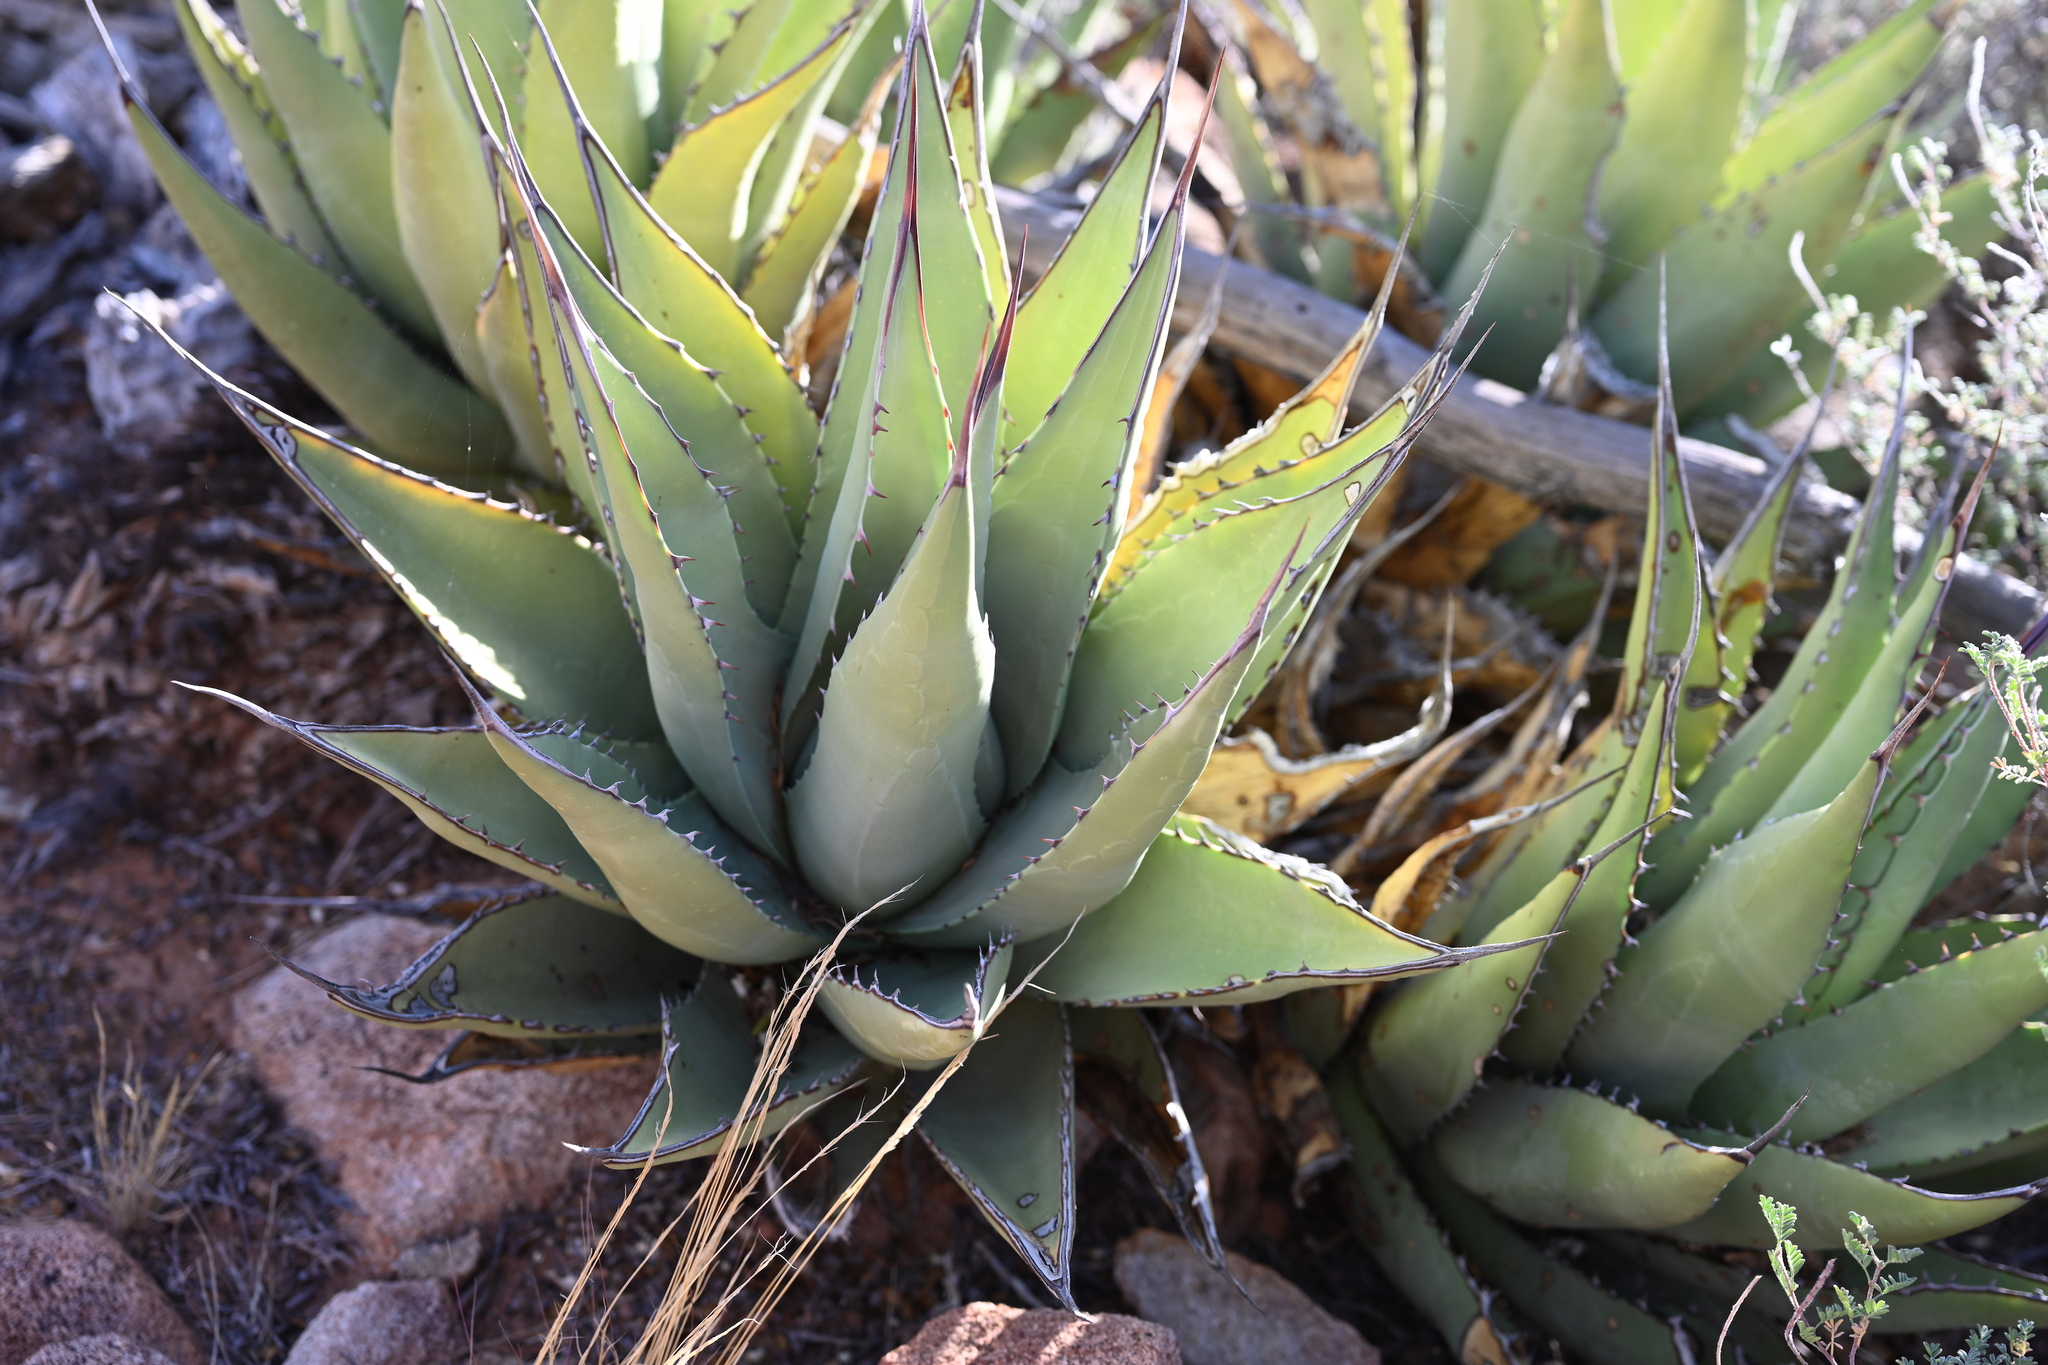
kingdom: Plantae
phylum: Tracheophyta
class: Liliopsida
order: Asparagales
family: Asparagaceae
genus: Agave
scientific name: Agave cerulata
